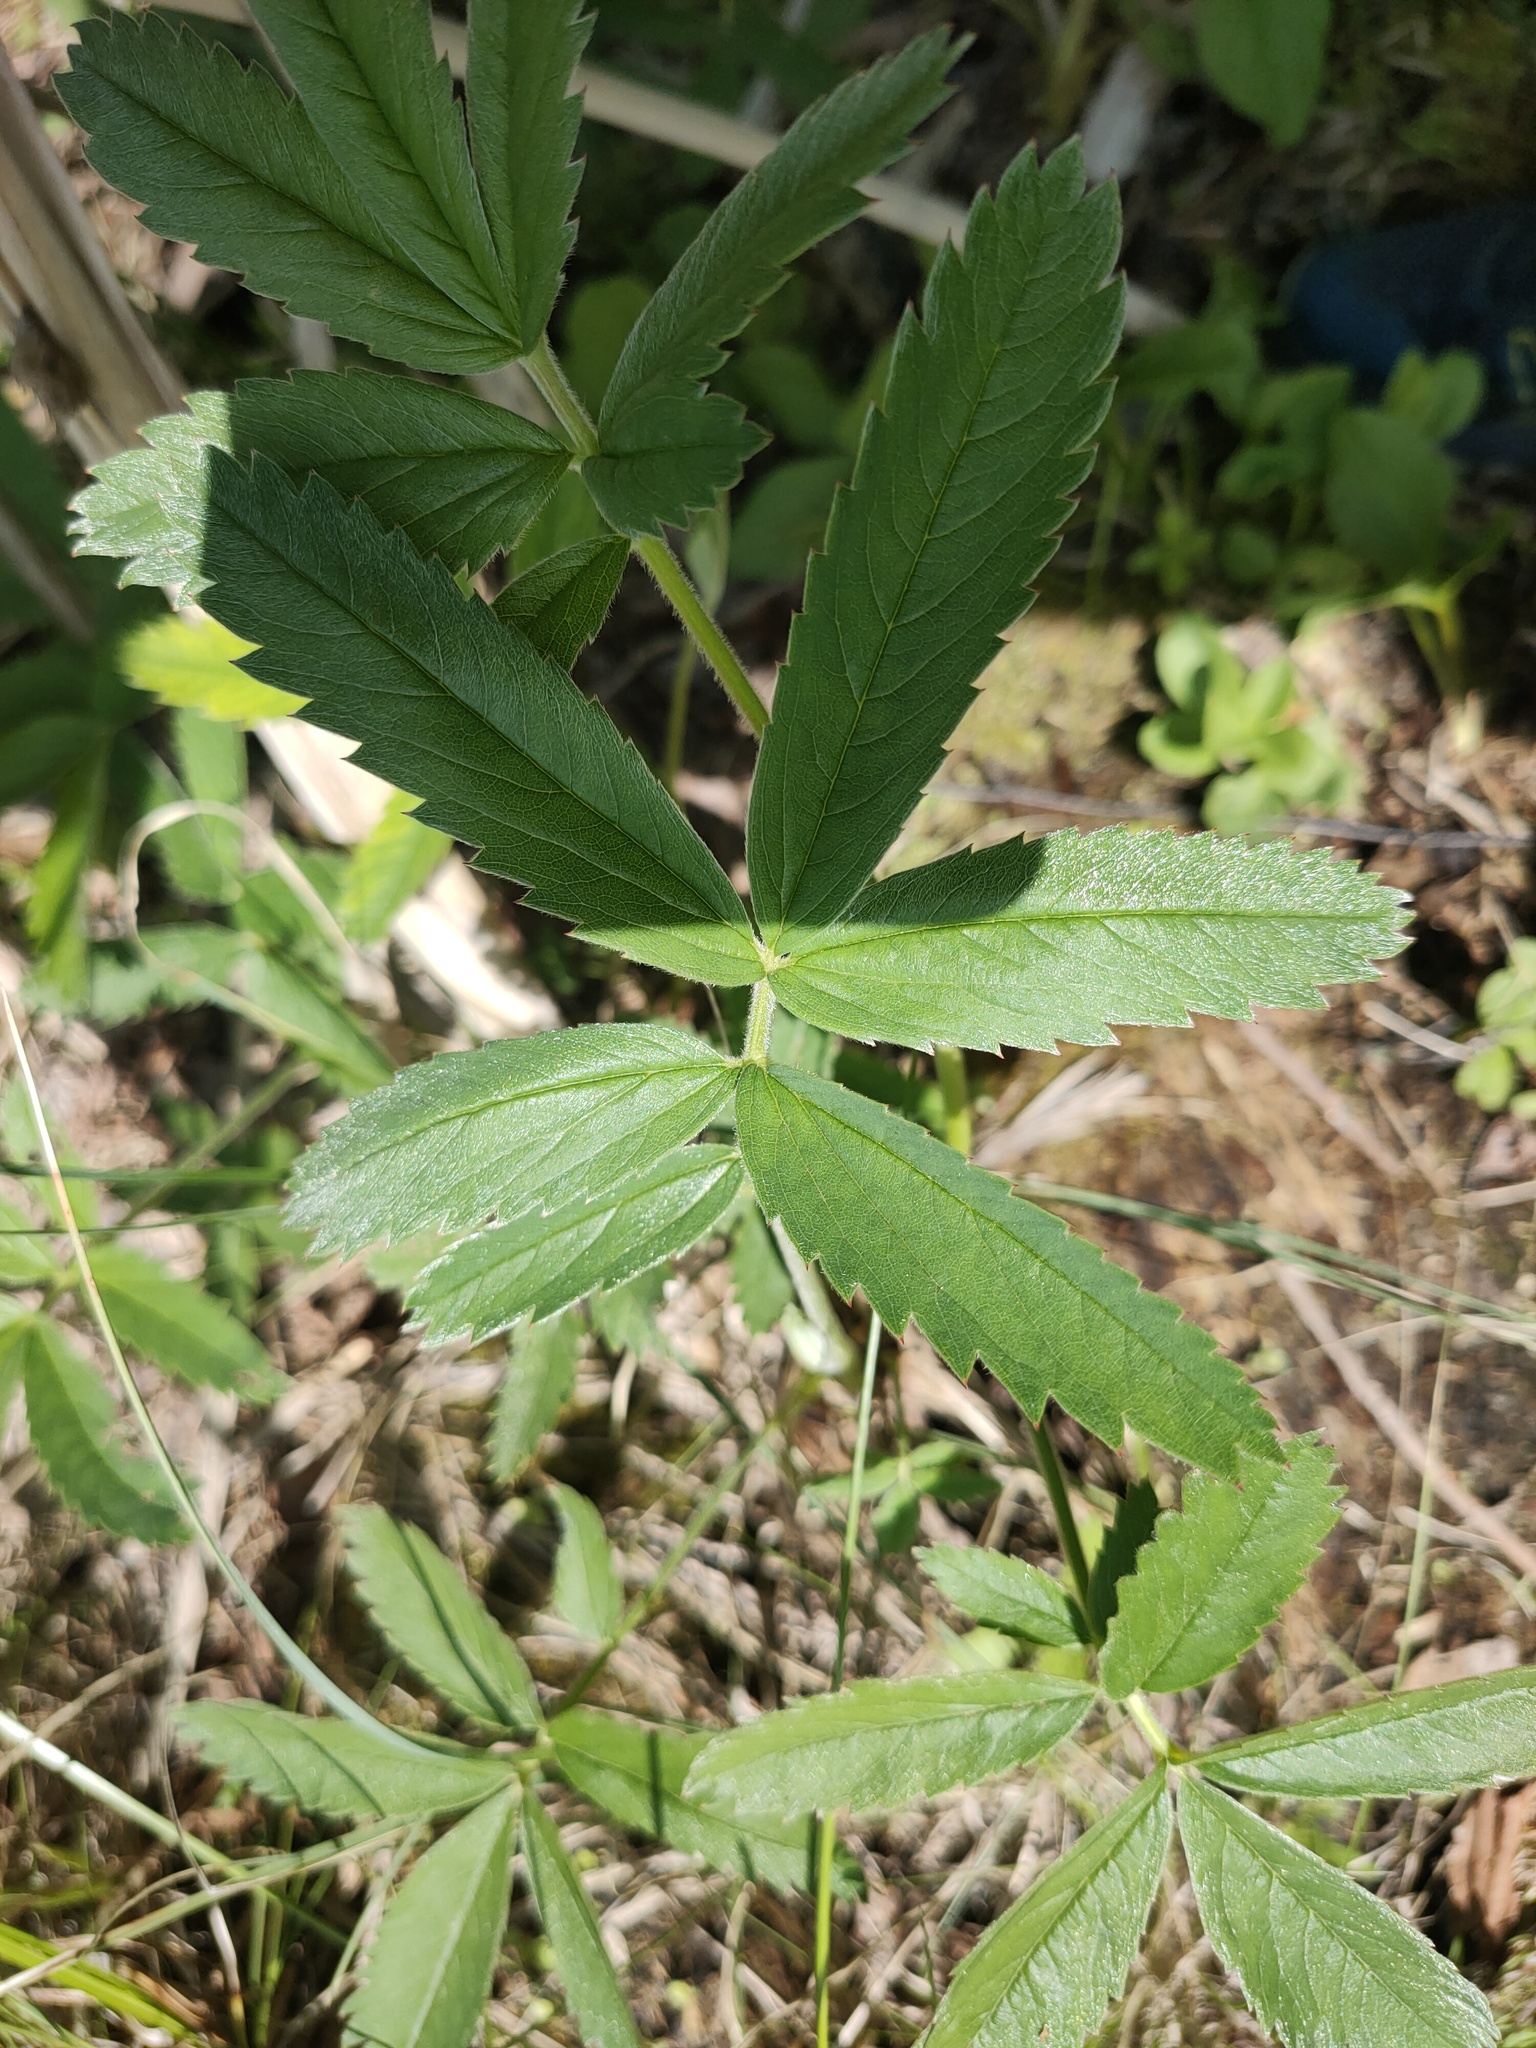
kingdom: Plantae
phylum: Tracheophyta
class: Magnoliopsida
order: Rosales
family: Rosaceae
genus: Comarum
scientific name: Comarum palustre
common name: Marsh cinquefoil
